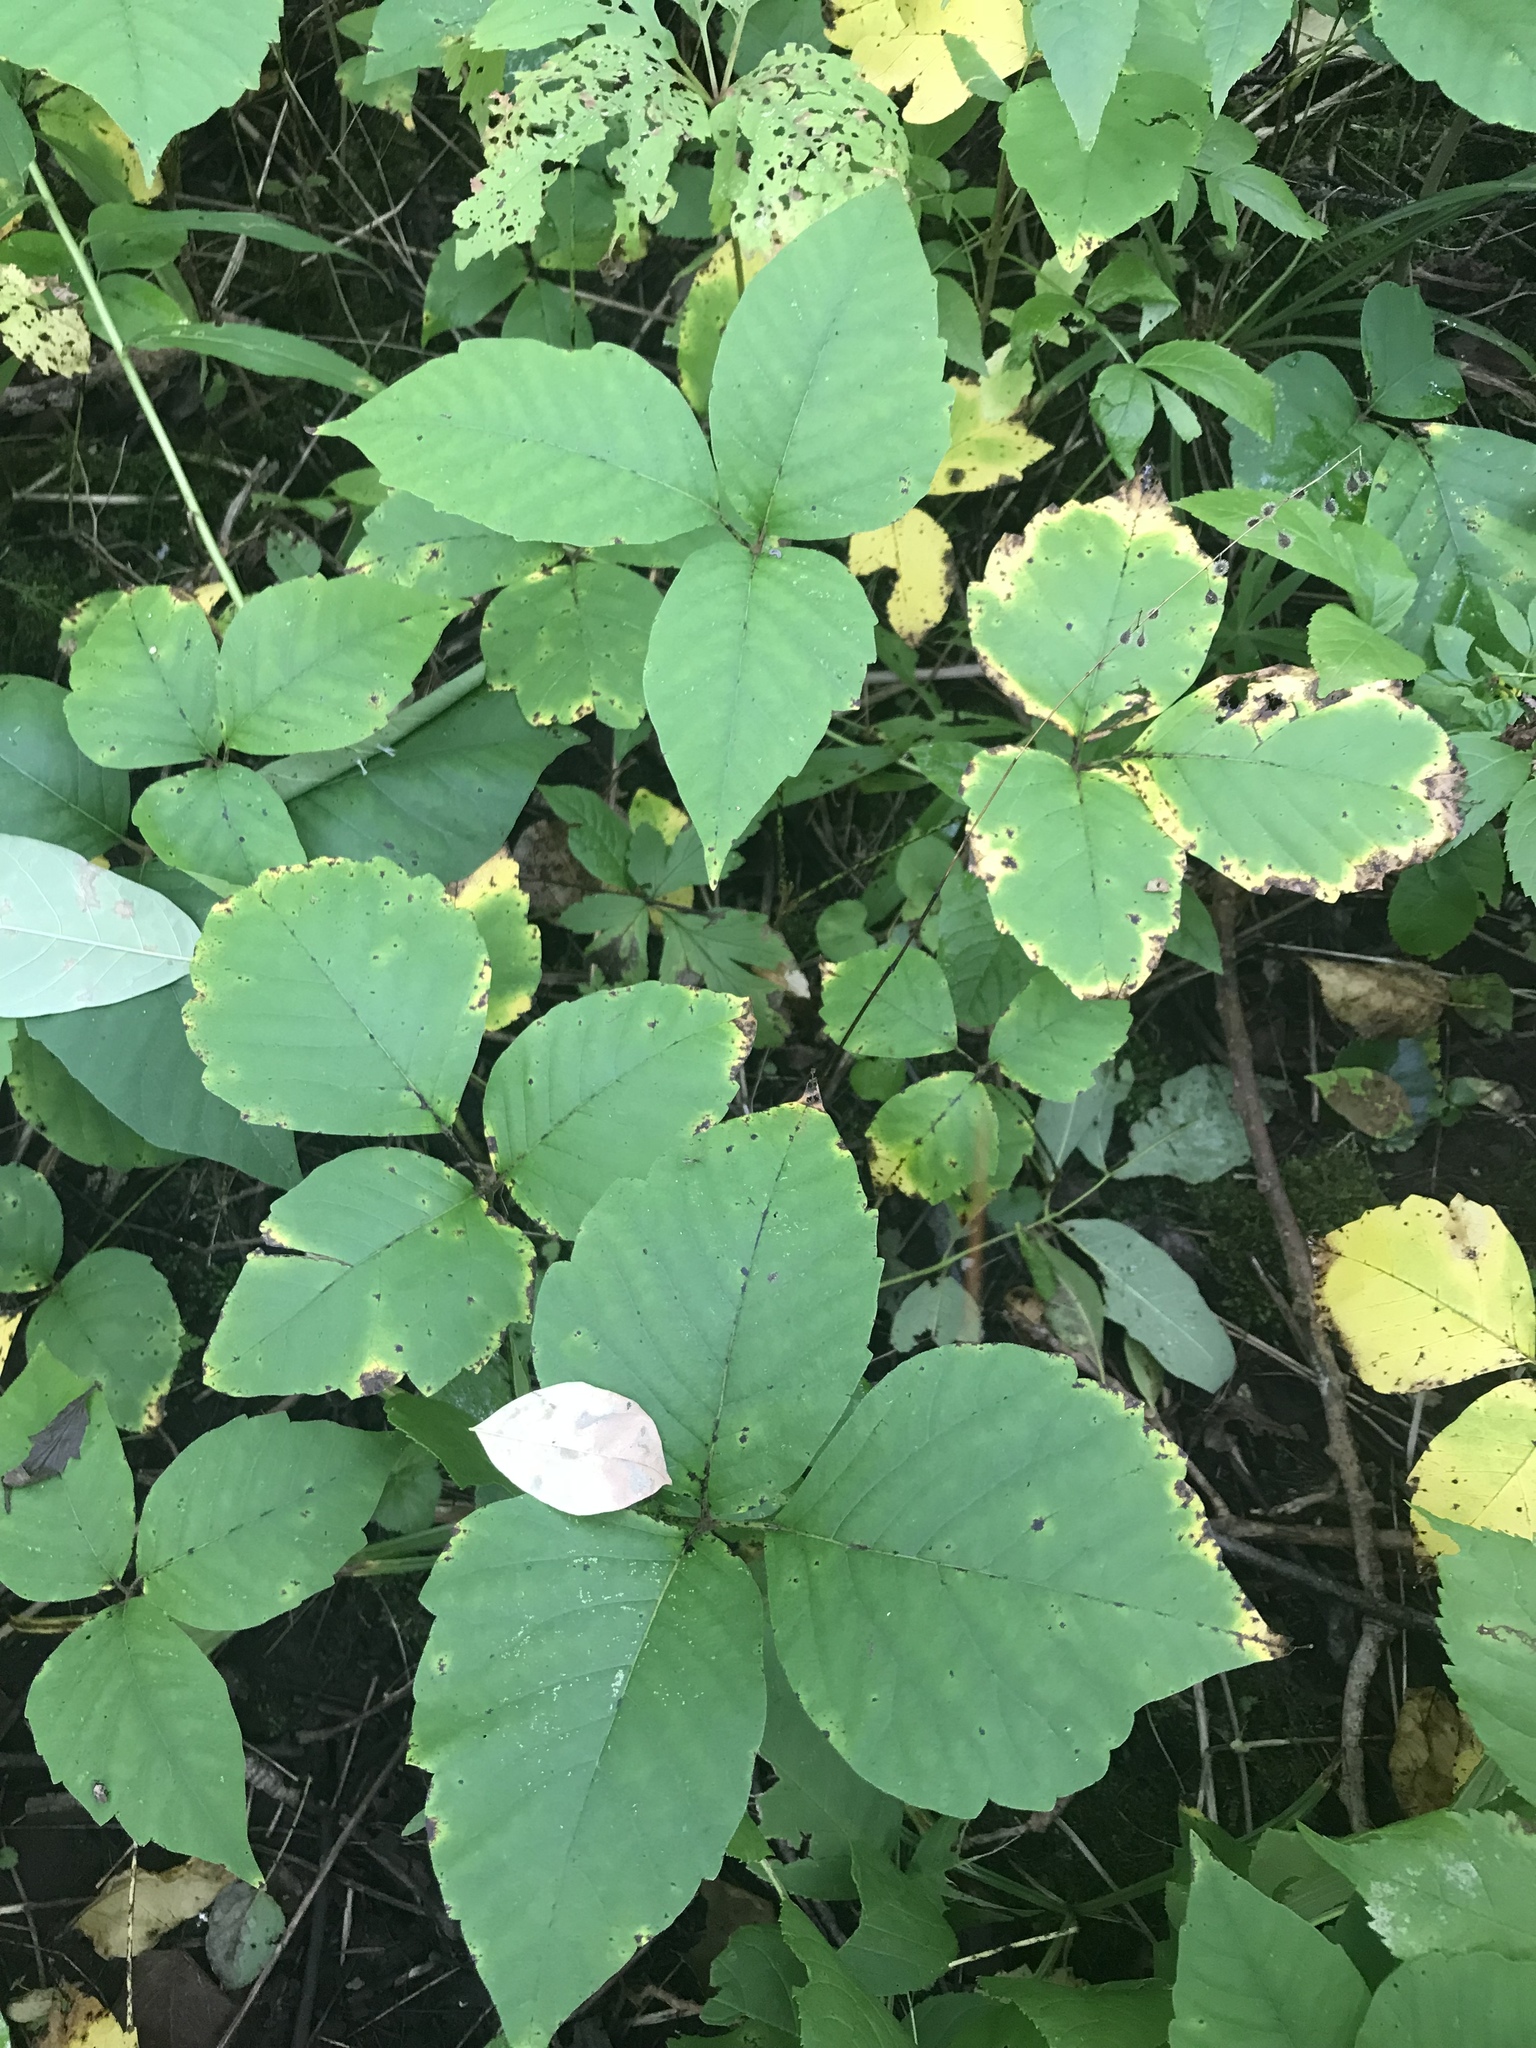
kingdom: Plantae
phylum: Tracheophyta
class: Magnoliopsida
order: Sapindales
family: Anacardiaceae
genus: Toxicodendron
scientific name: Toxicodendron radicans
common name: Poison ivy
